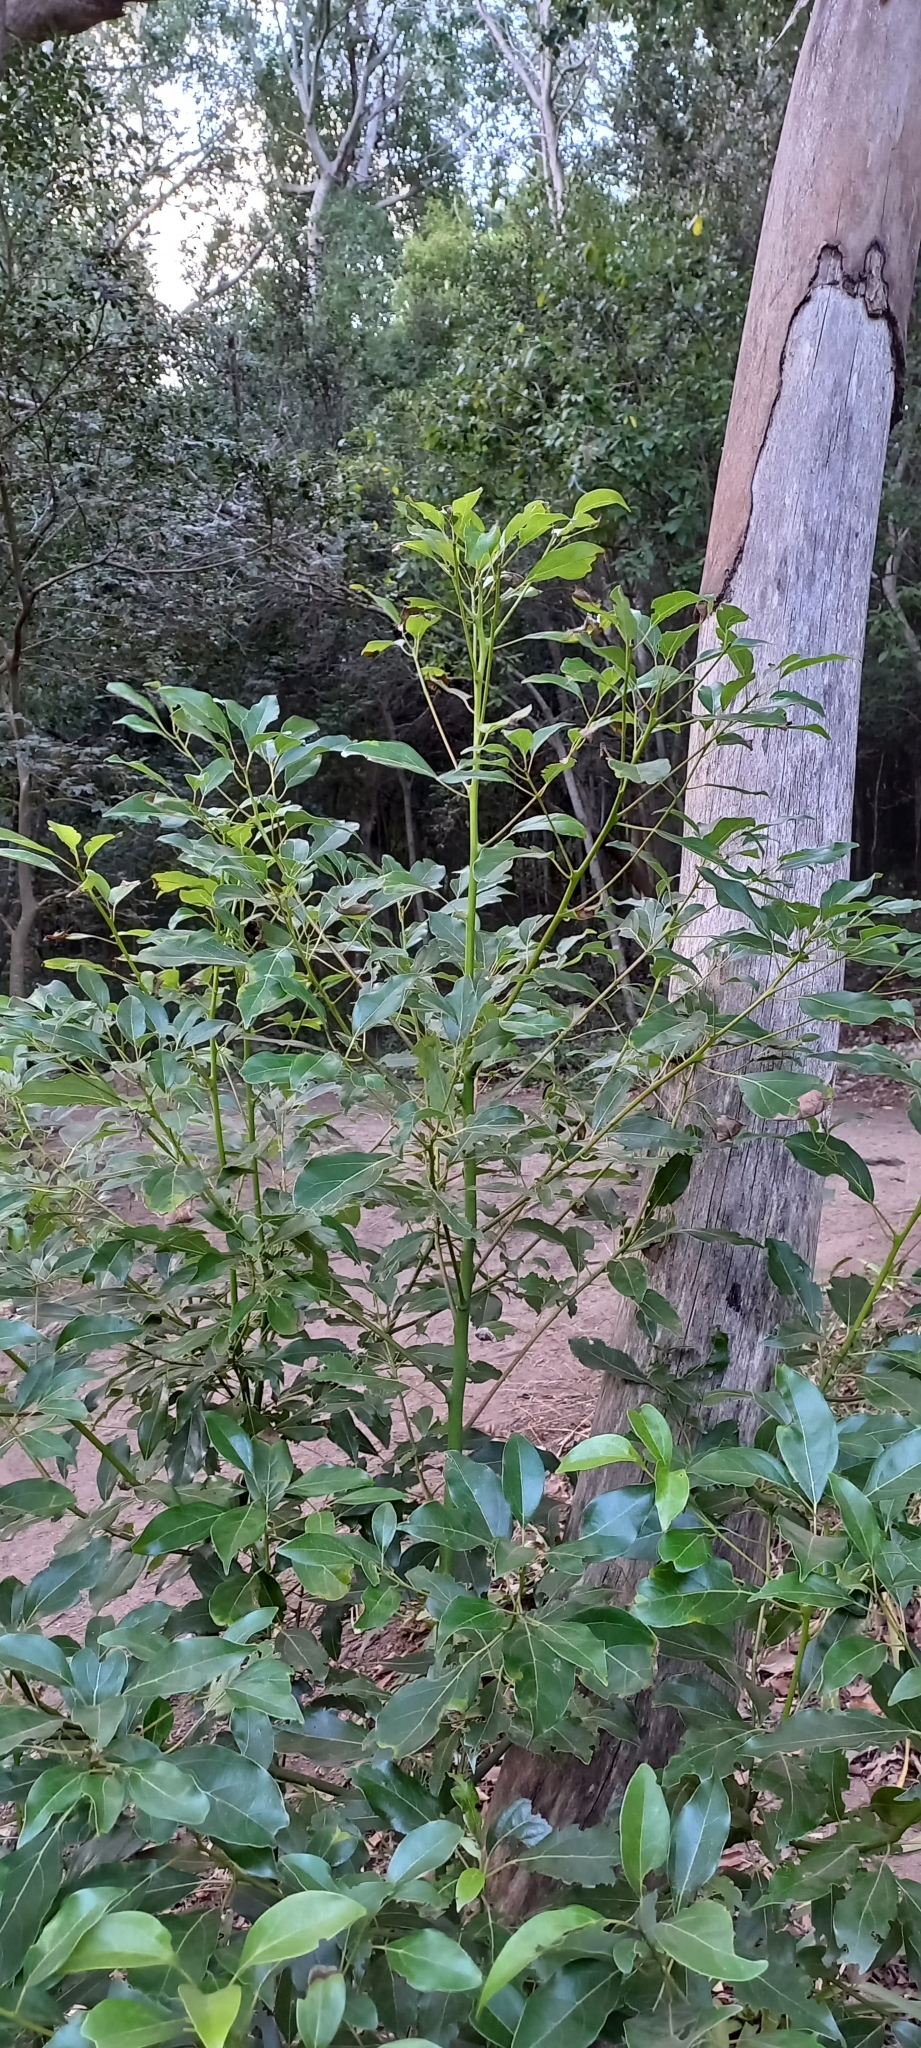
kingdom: Plantae
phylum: Tracheophyta
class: Magnoliopsida
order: Laurales
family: Lauraceae
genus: Cinnamomum
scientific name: Cinnamomum camphora
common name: Camphortree
